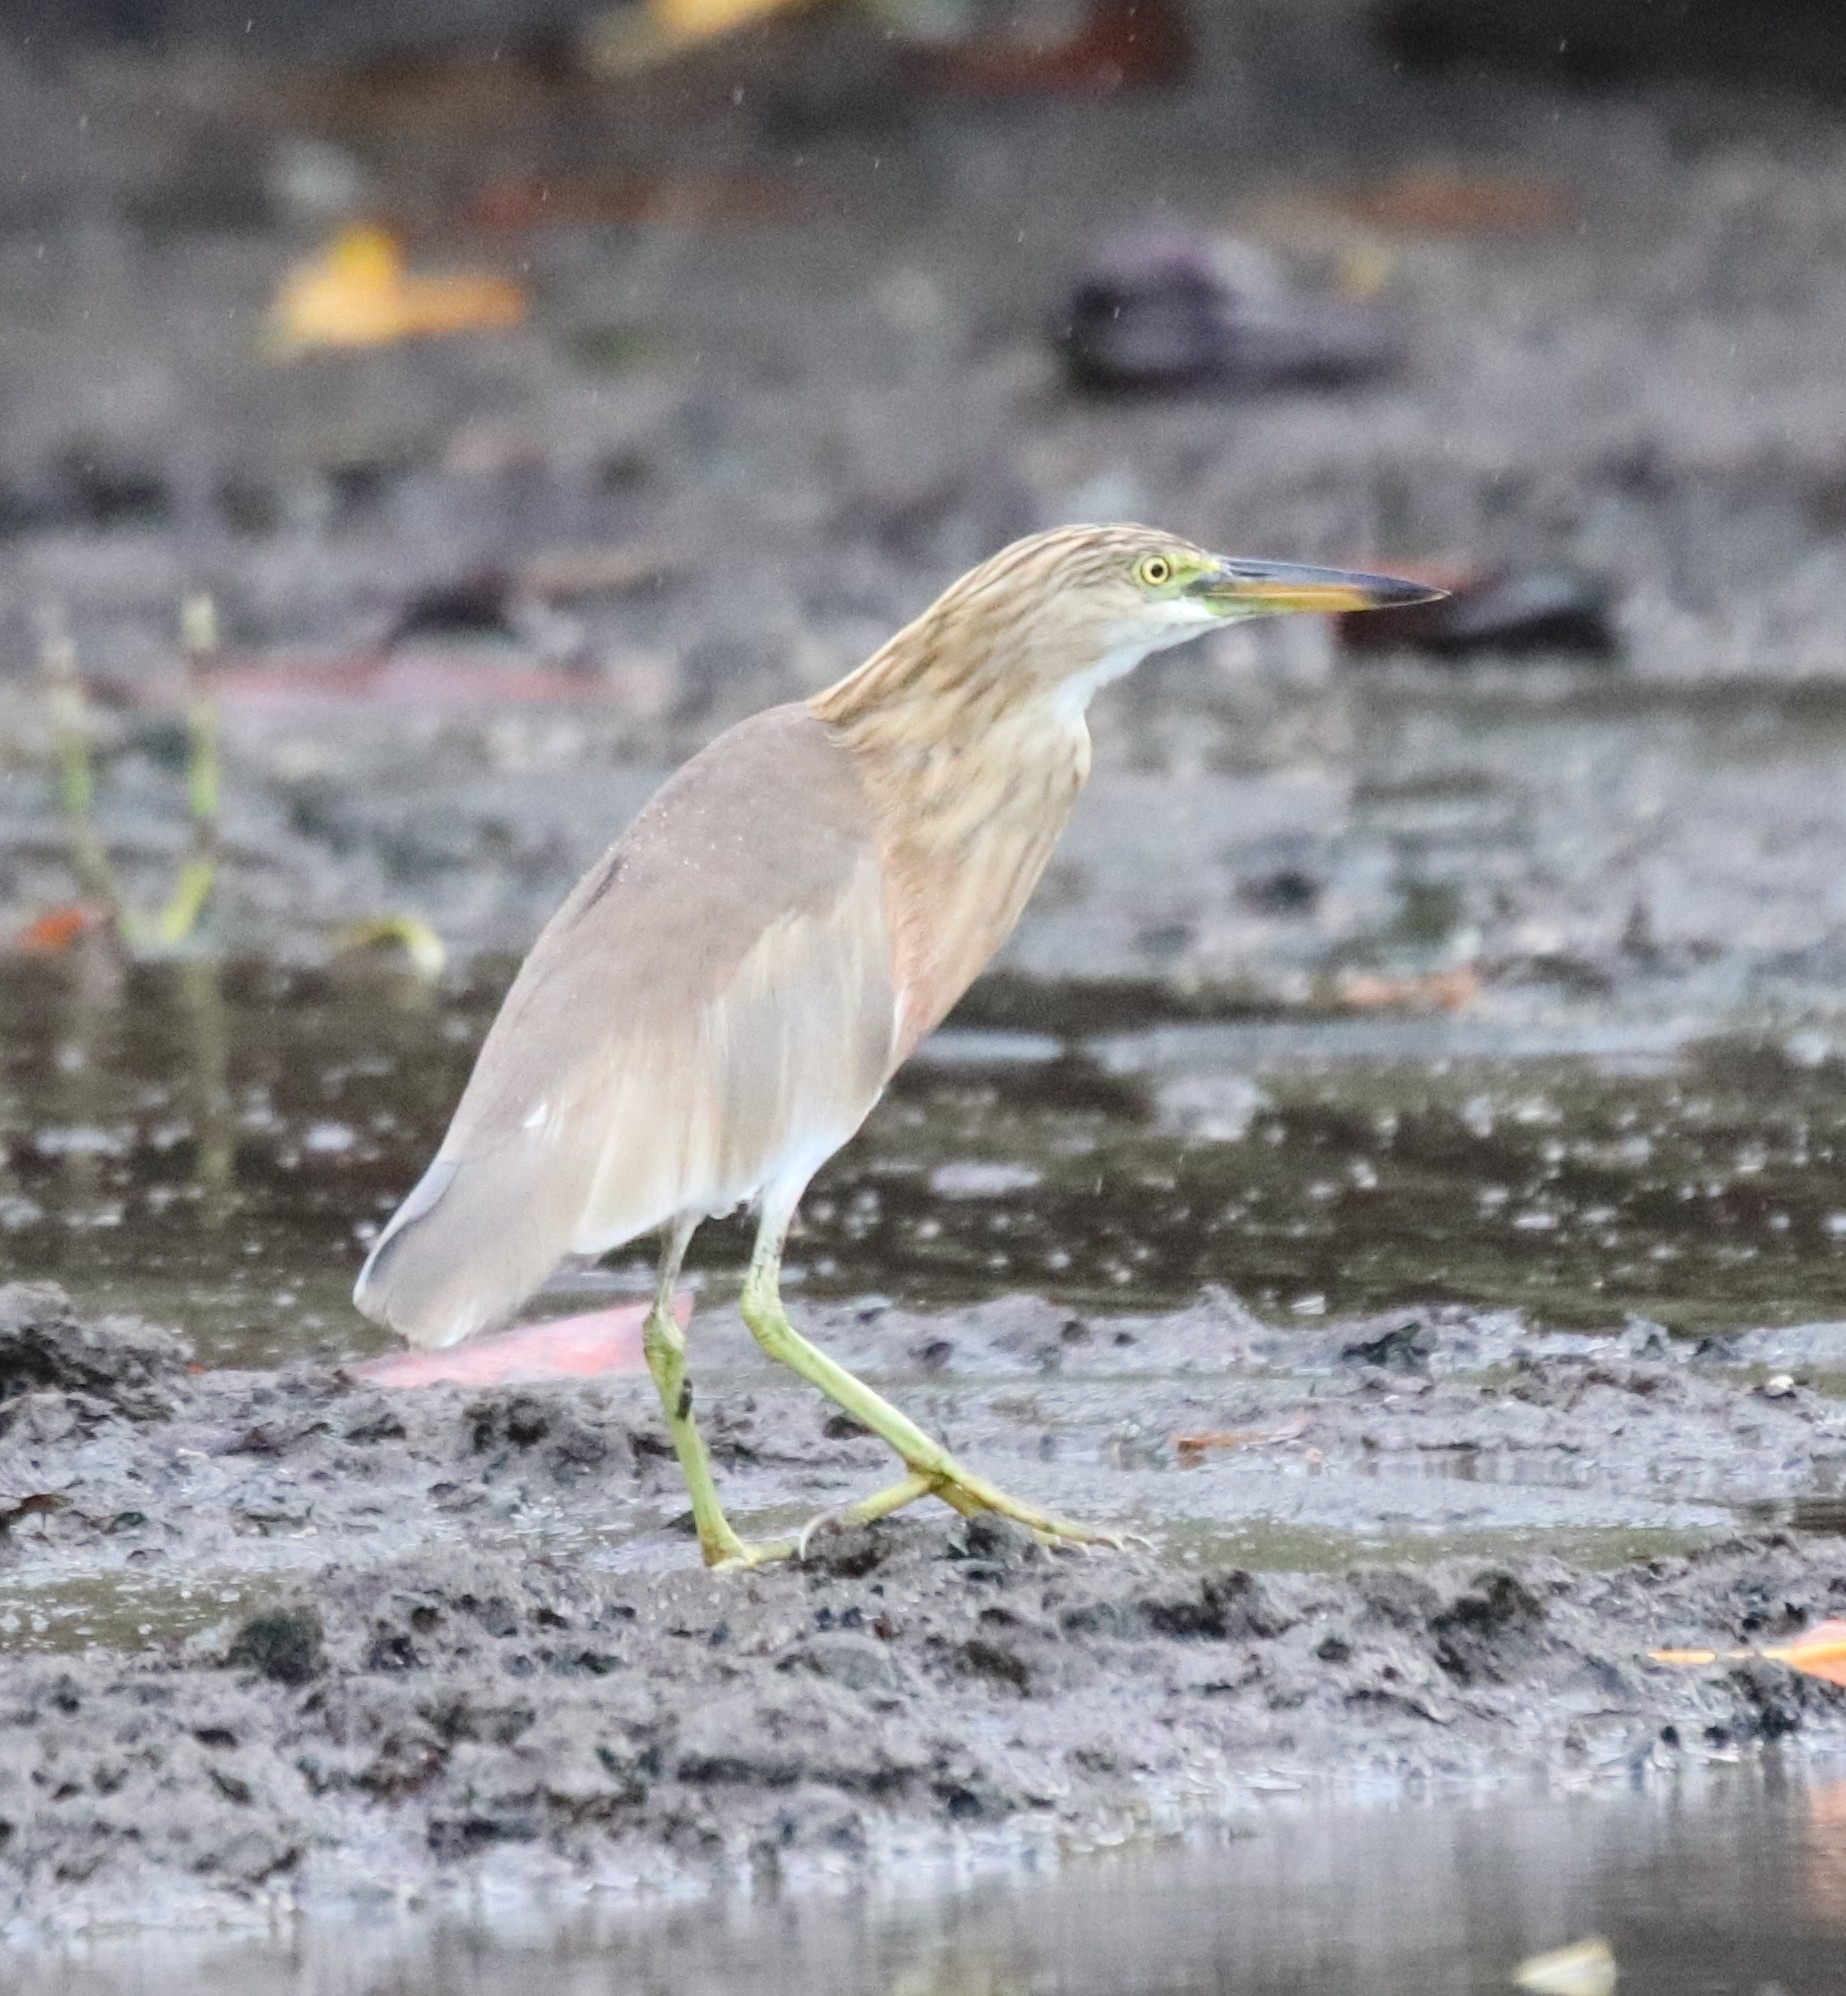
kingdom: Animalia
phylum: Chordata
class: Aves
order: Pelecaniformes
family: Ardeidae
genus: Ardeola
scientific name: Ardeola speciosa
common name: Javan pond heron
